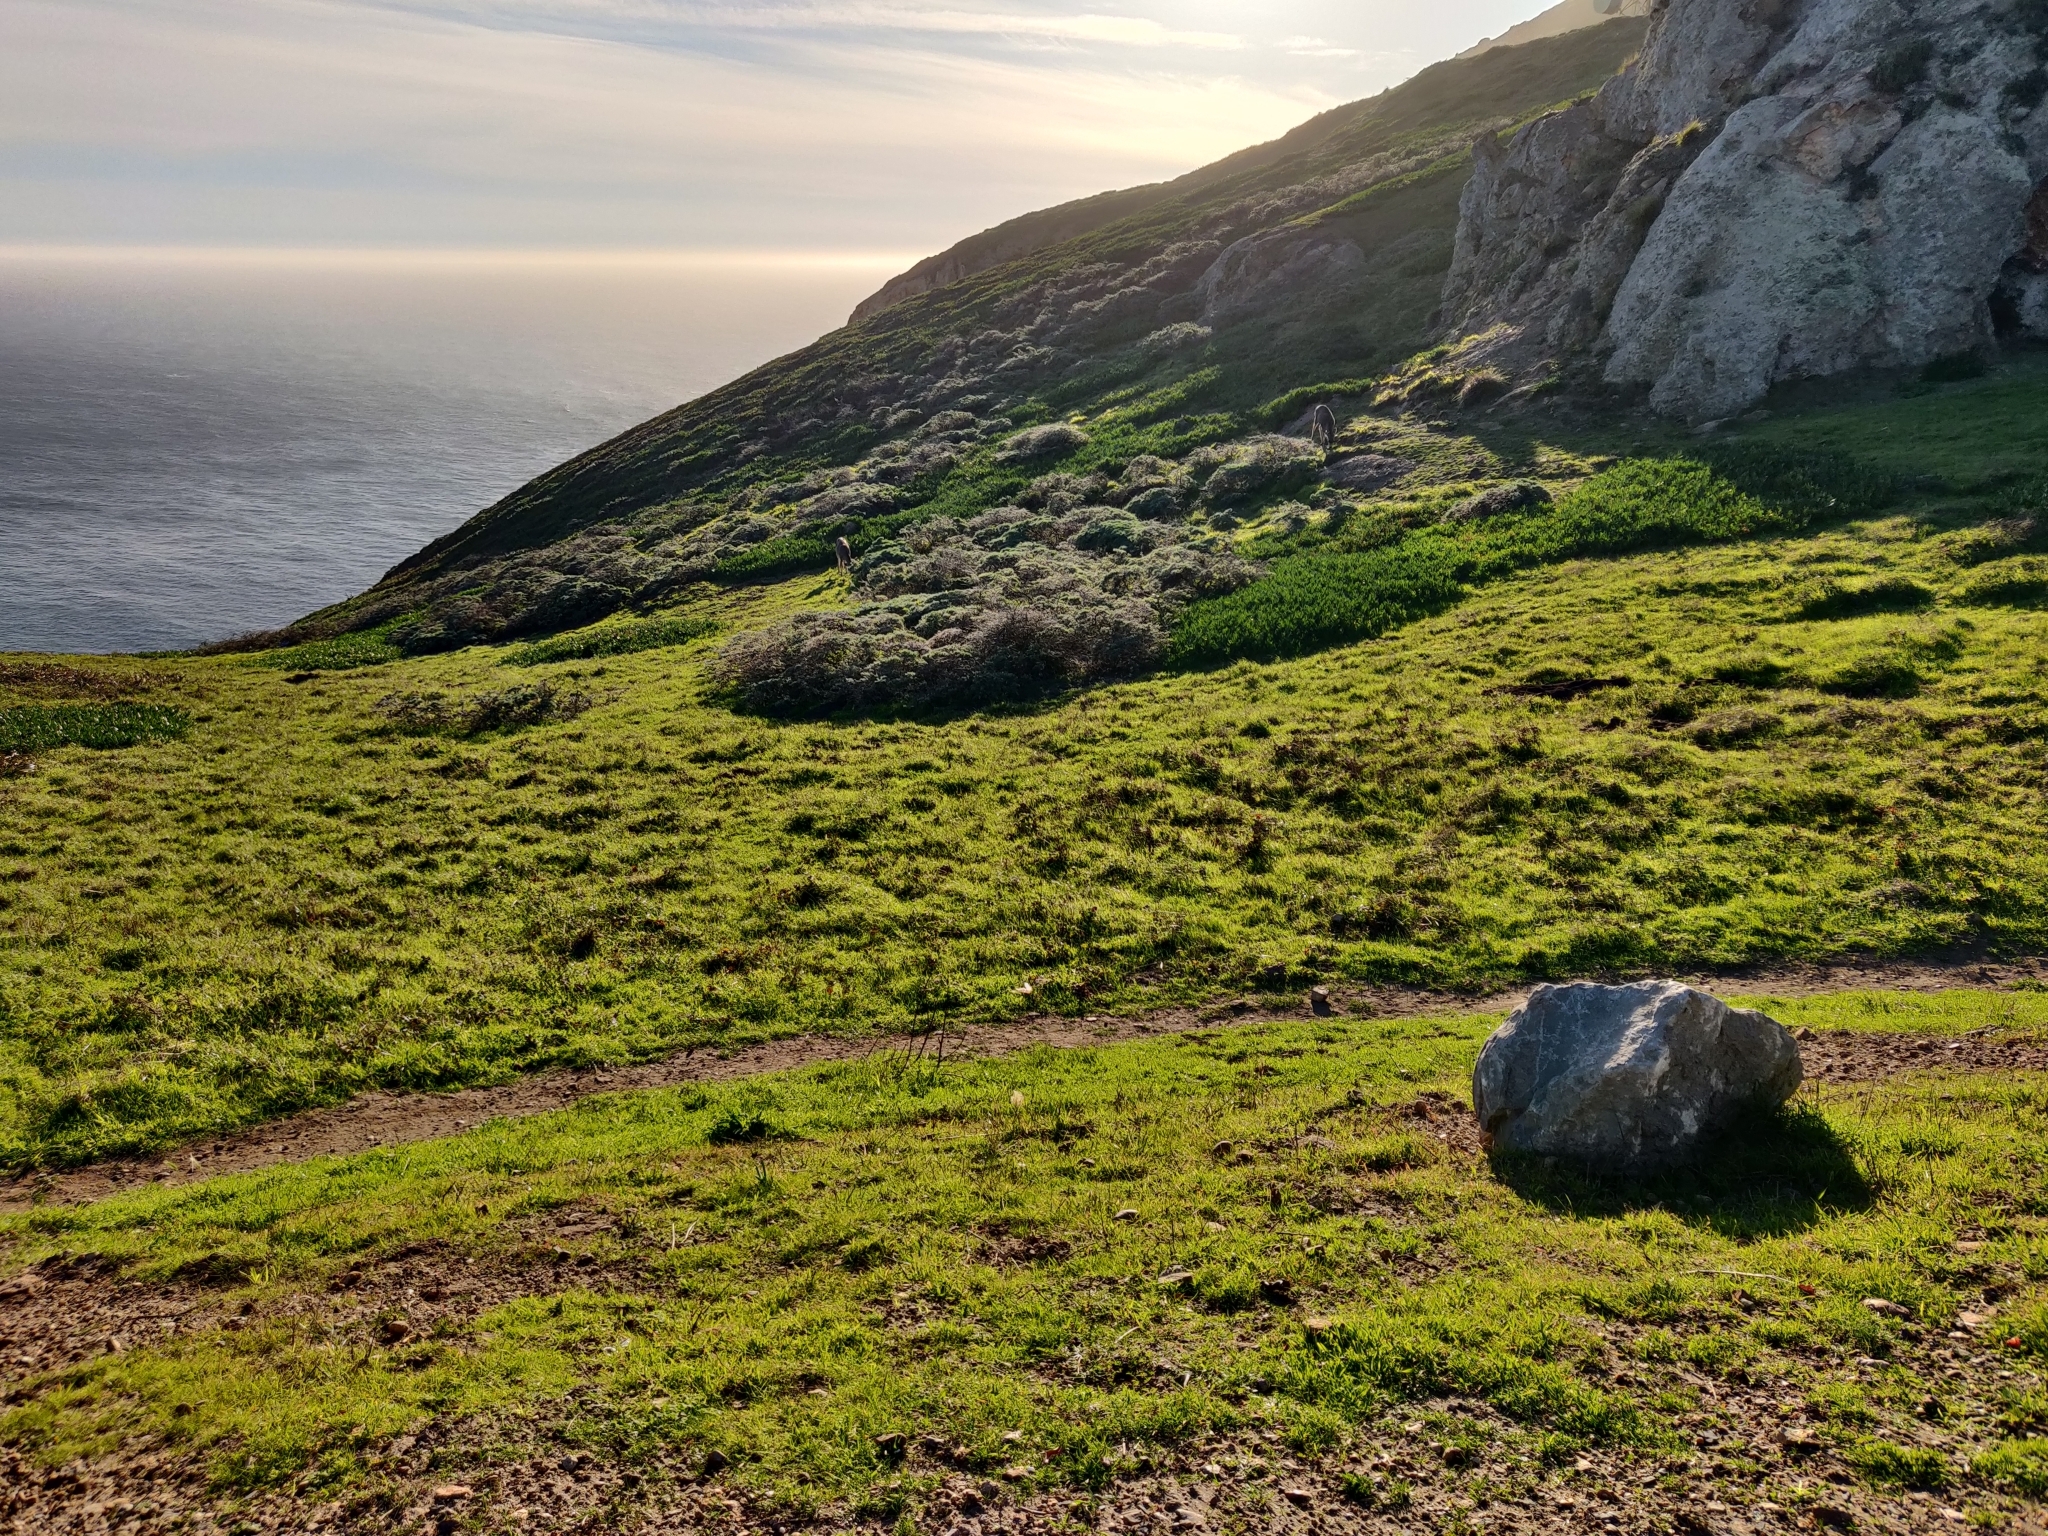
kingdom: Animalia
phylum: Chordata
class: Mammalia
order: Artiodactyla
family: Cervidae
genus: Odocoileus
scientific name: Odocoileus hemionus
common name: Mule deer
